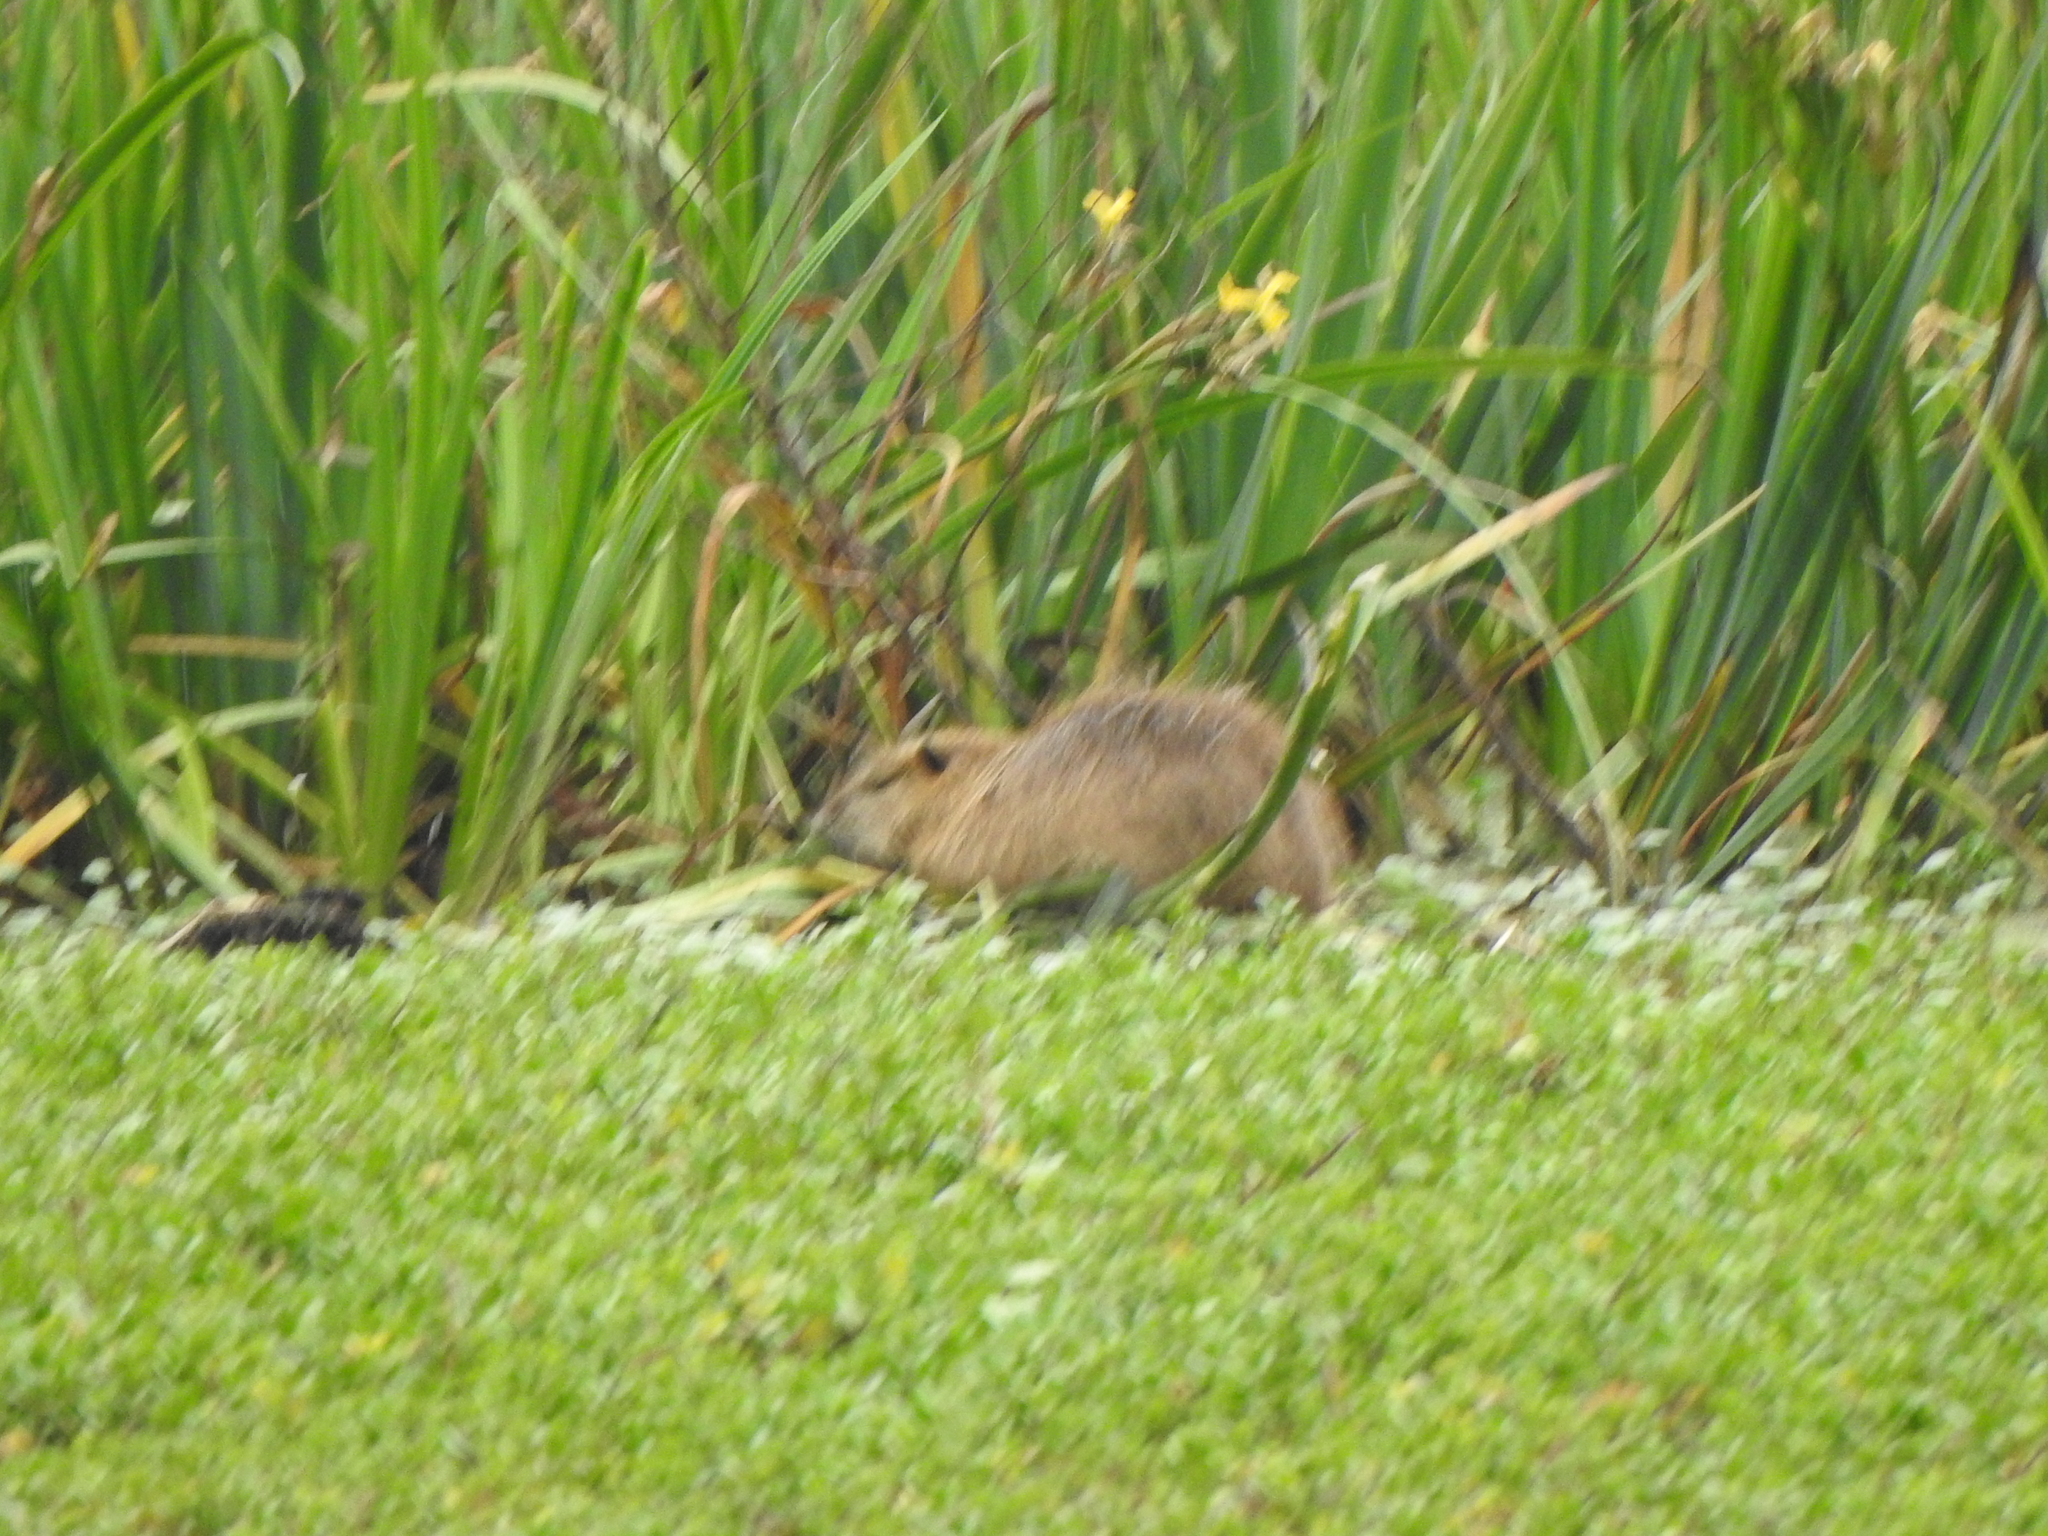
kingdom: Animalia
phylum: Chordata
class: Mammalia
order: Rodentia
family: Myocastoridae
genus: Myocastor
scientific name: Myocastor coypus
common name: Coypu
